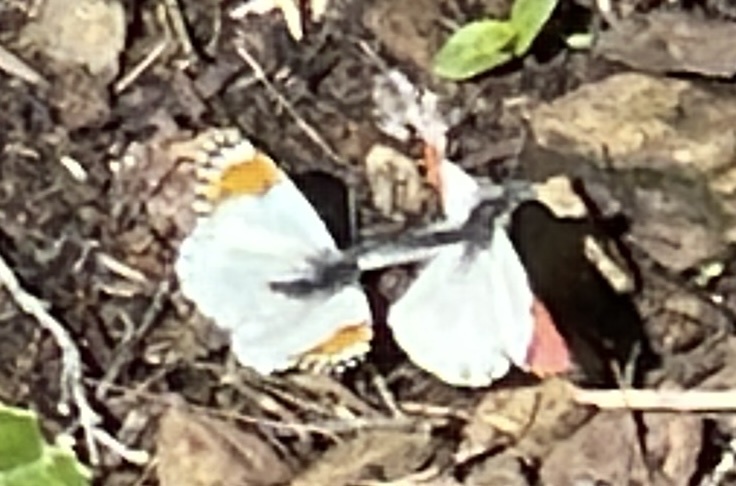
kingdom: Animalia
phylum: Arthropoda
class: Insecta
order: Lepidoptera
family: Pieridae
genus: Anthocharis
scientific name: Anthocharis sara
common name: Sara's orangetip
